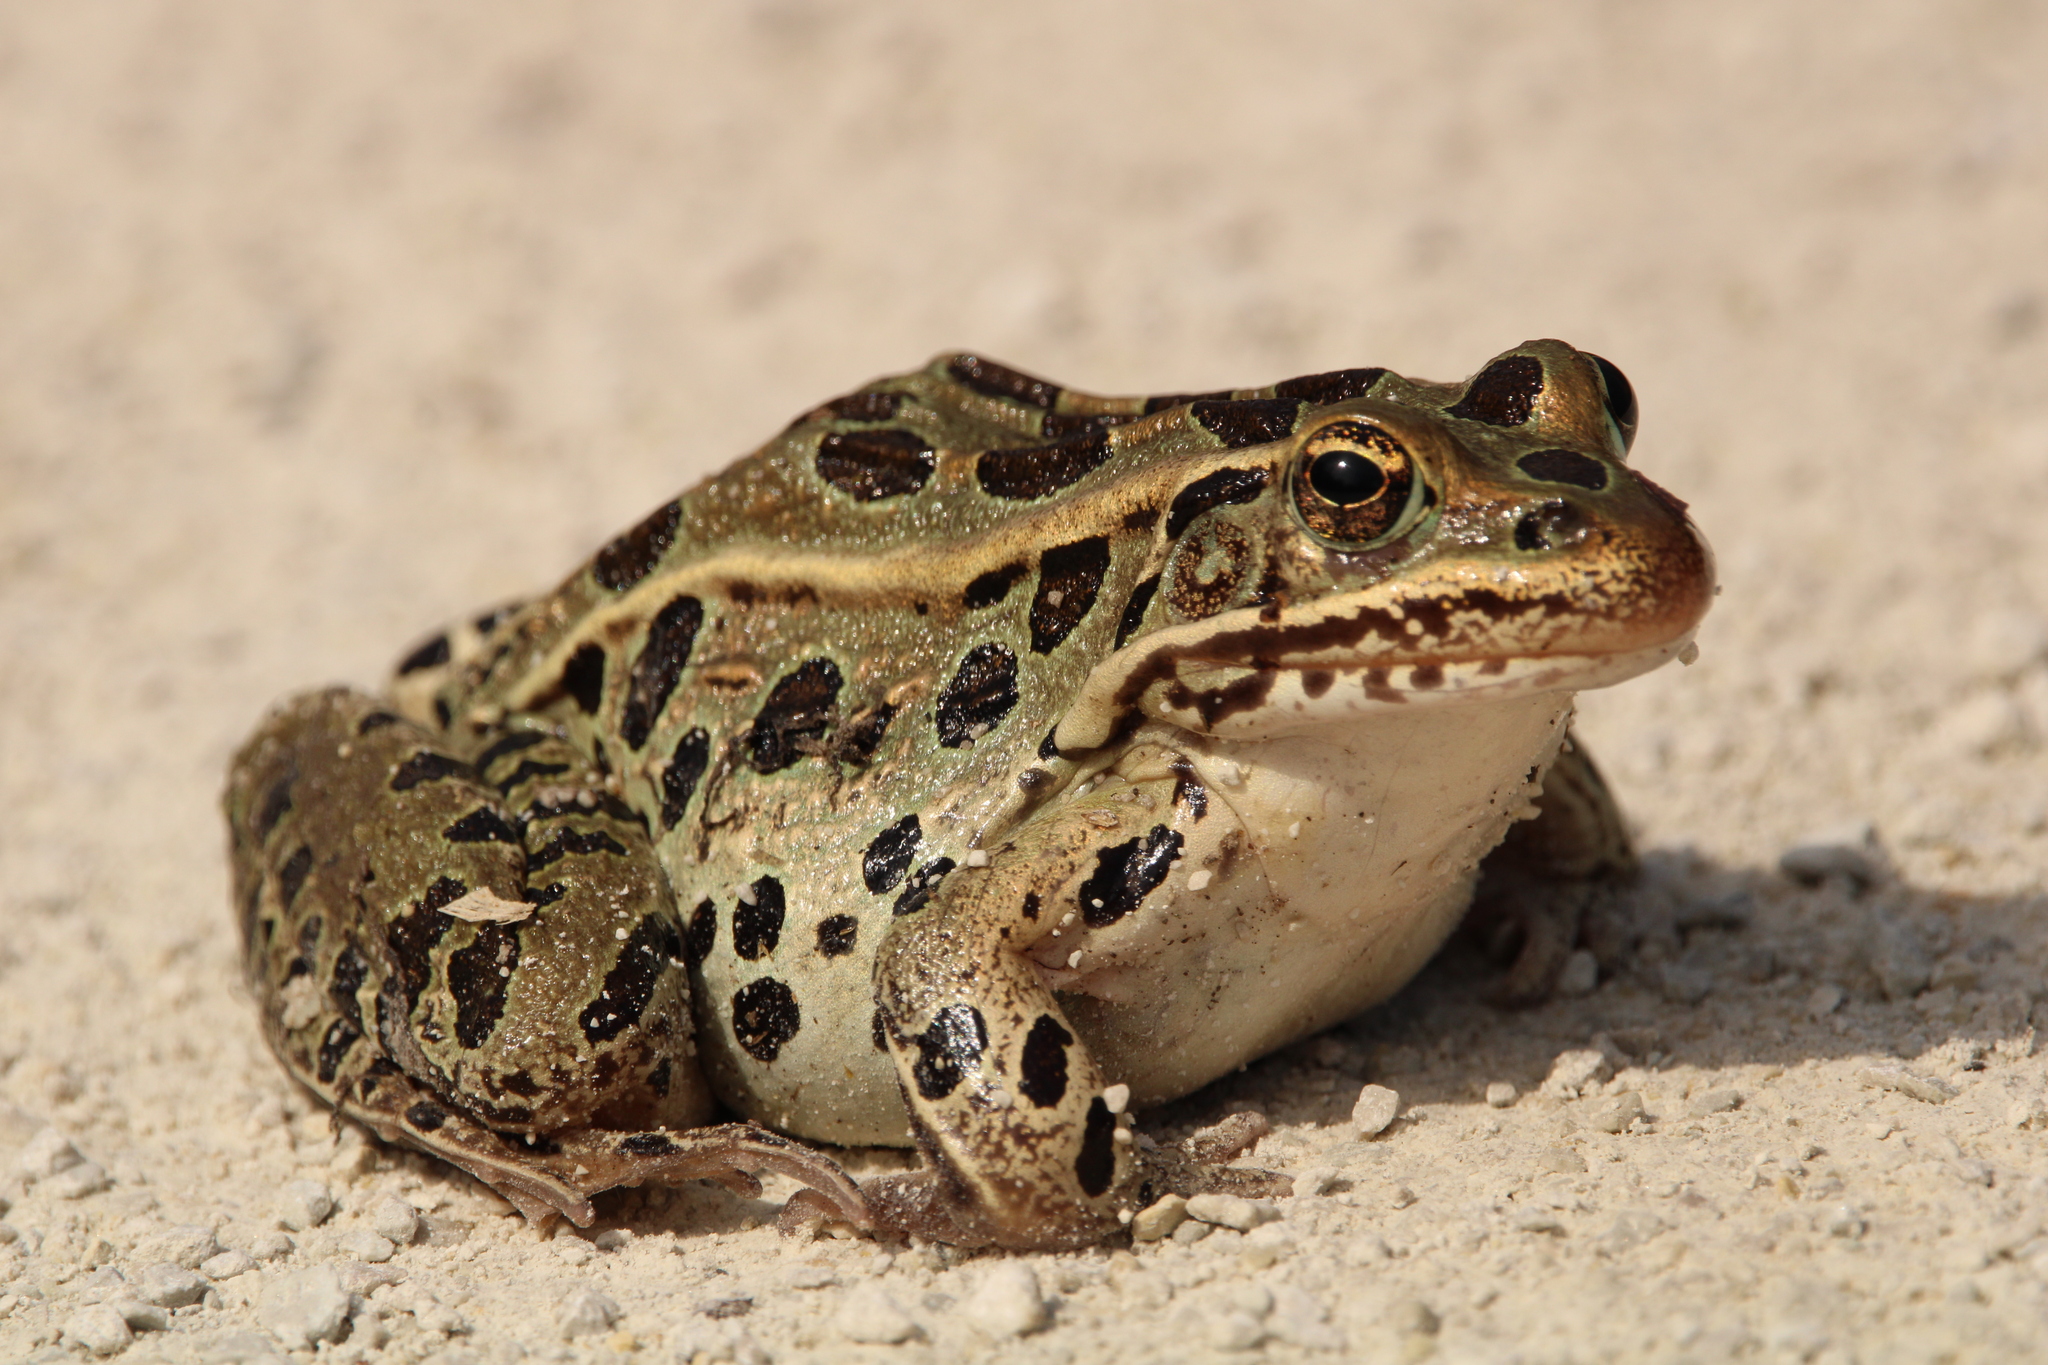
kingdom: Animalia
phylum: Chordata
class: Amphibia
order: Anura
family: Ranidae
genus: Lithobates
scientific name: Lithobates pipiens
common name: Northern leopard frog
